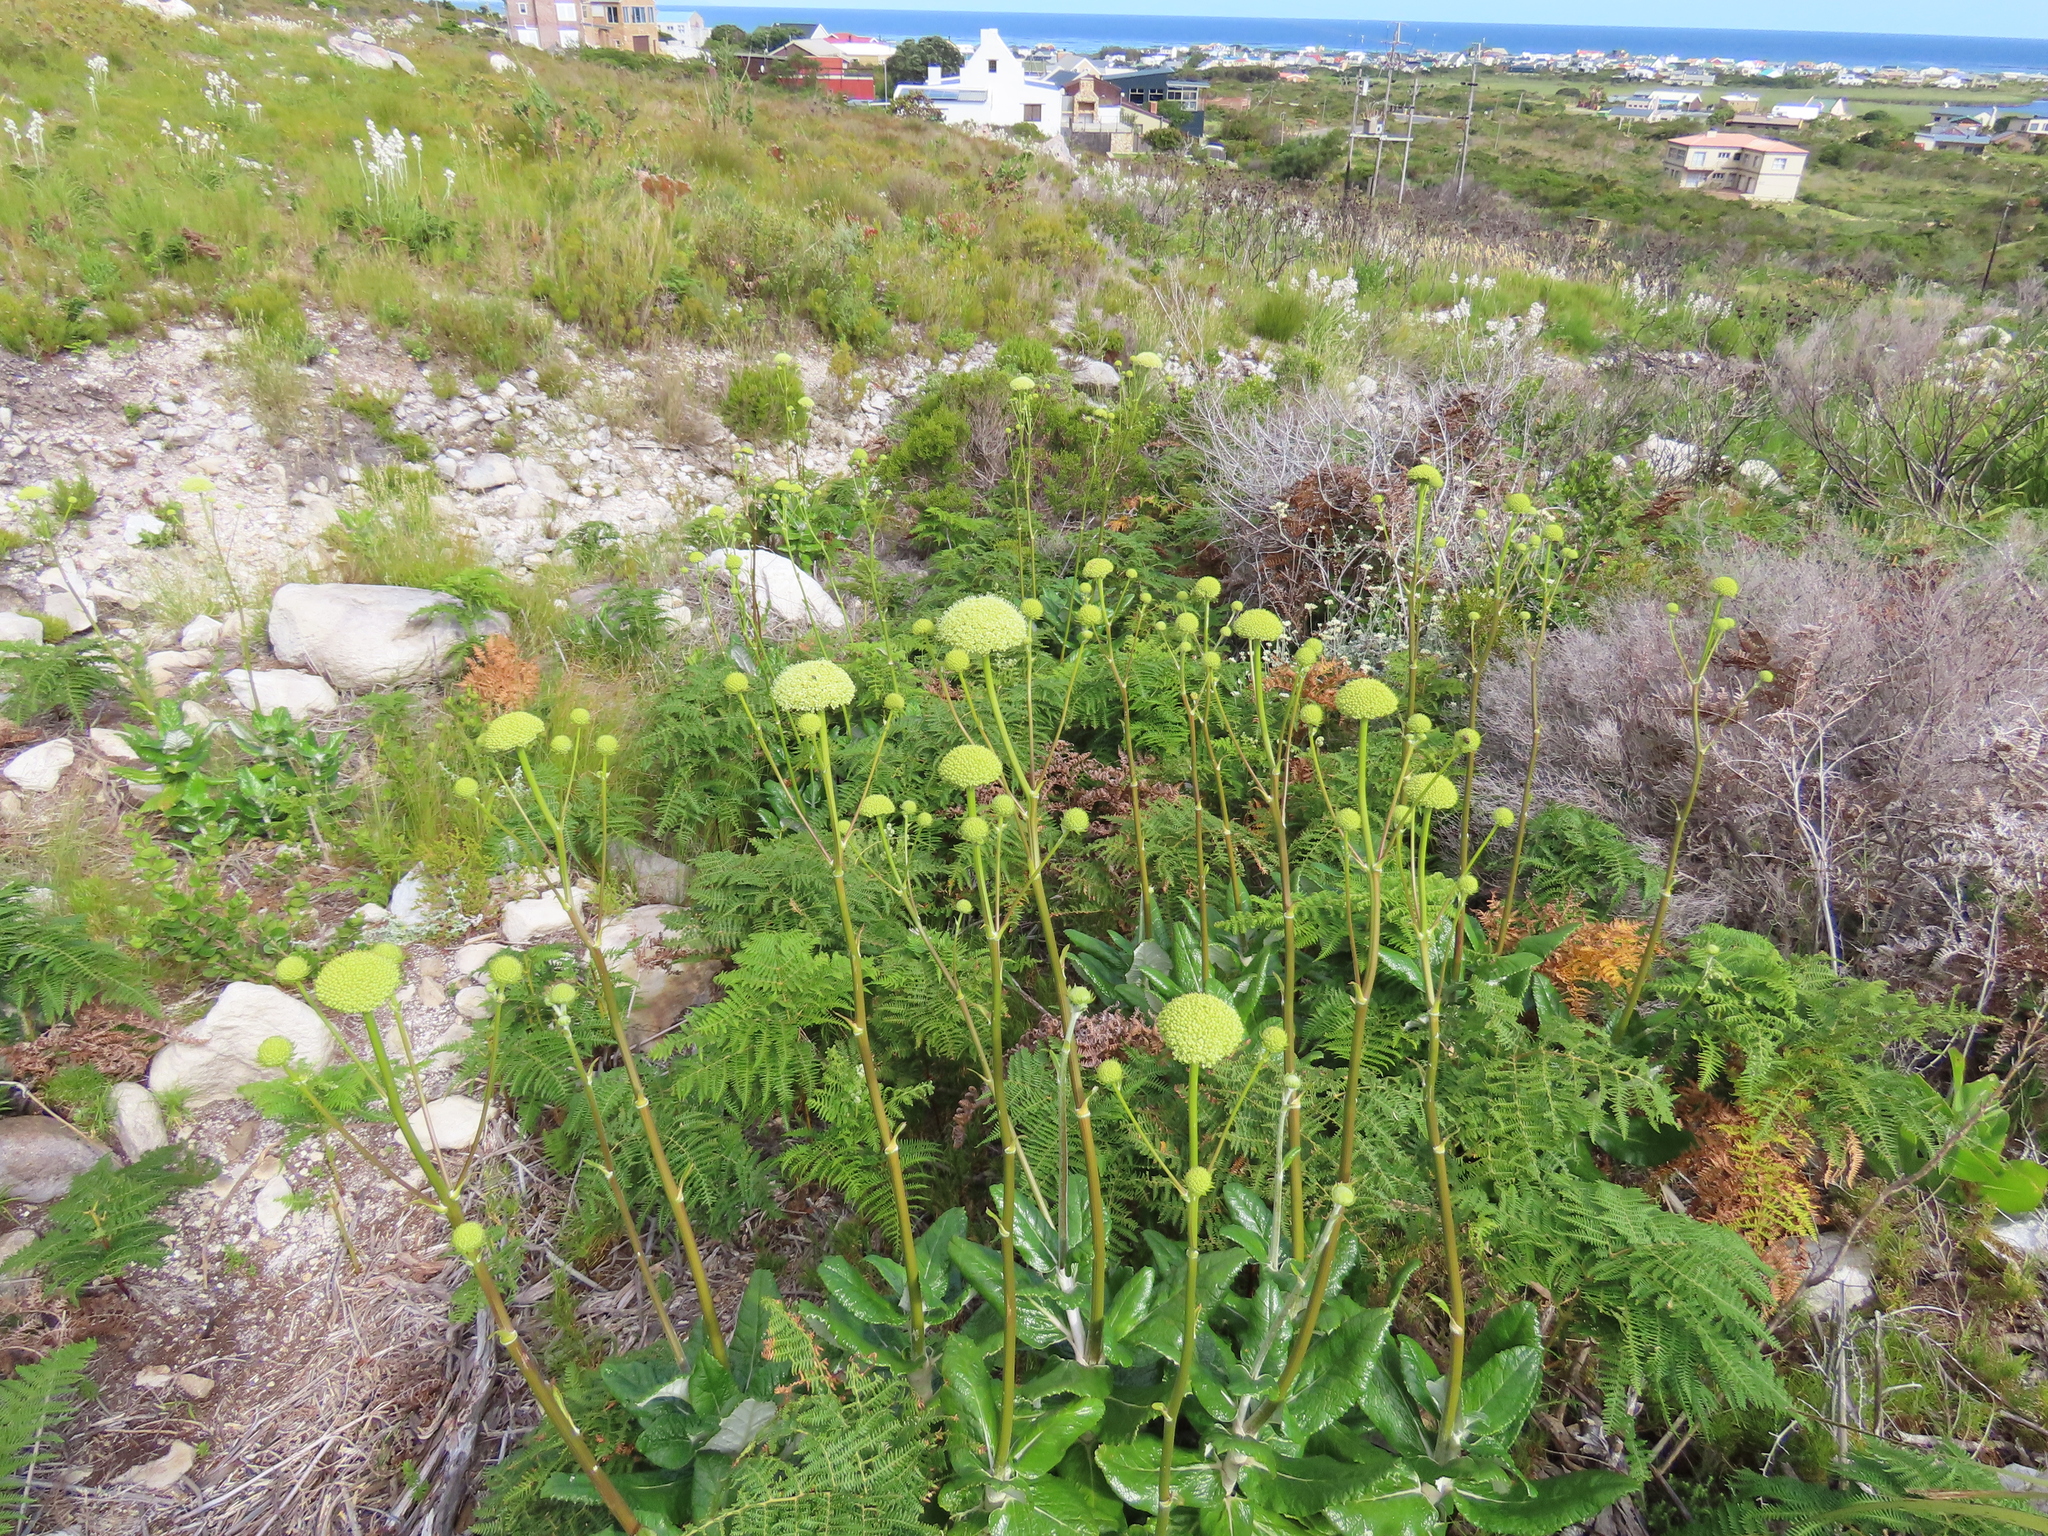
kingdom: Plantae
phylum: Tracheophyta
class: Magnoliopsida
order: Apiales
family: Apiaceae
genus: Hermas
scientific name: Hermas villosa
